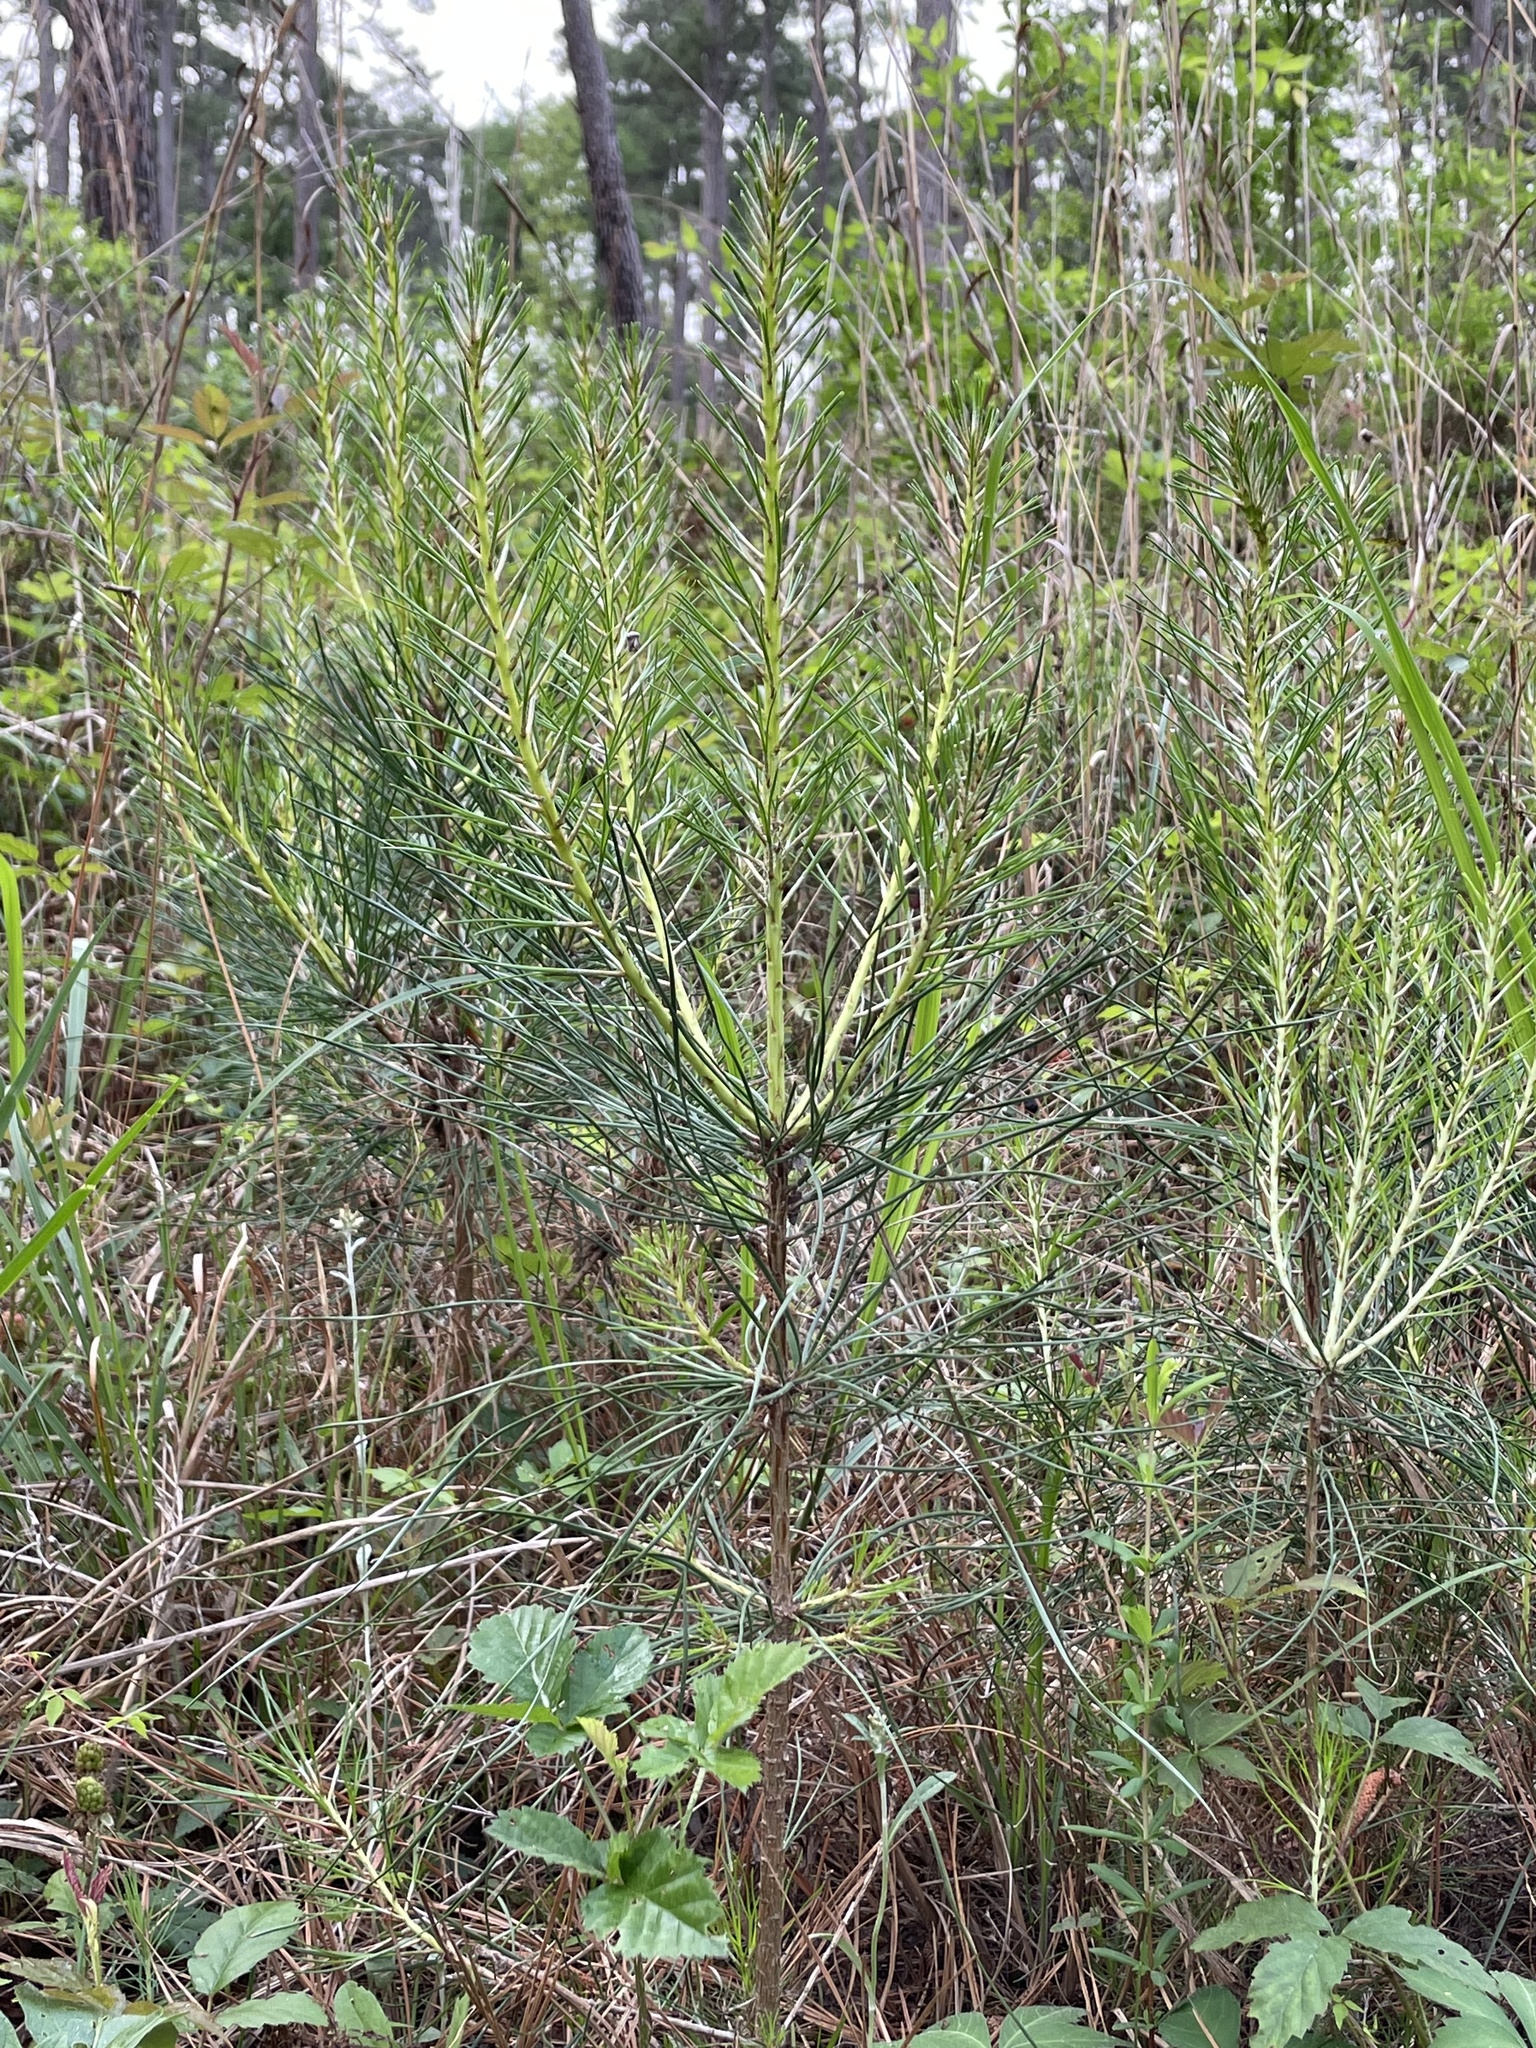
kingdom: Plantae
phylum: Tracheophyta
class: Pinopsida
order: Pinales
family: Pinaceae
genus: Pinus
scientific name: Pinus taeda
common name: Loblolly pine
